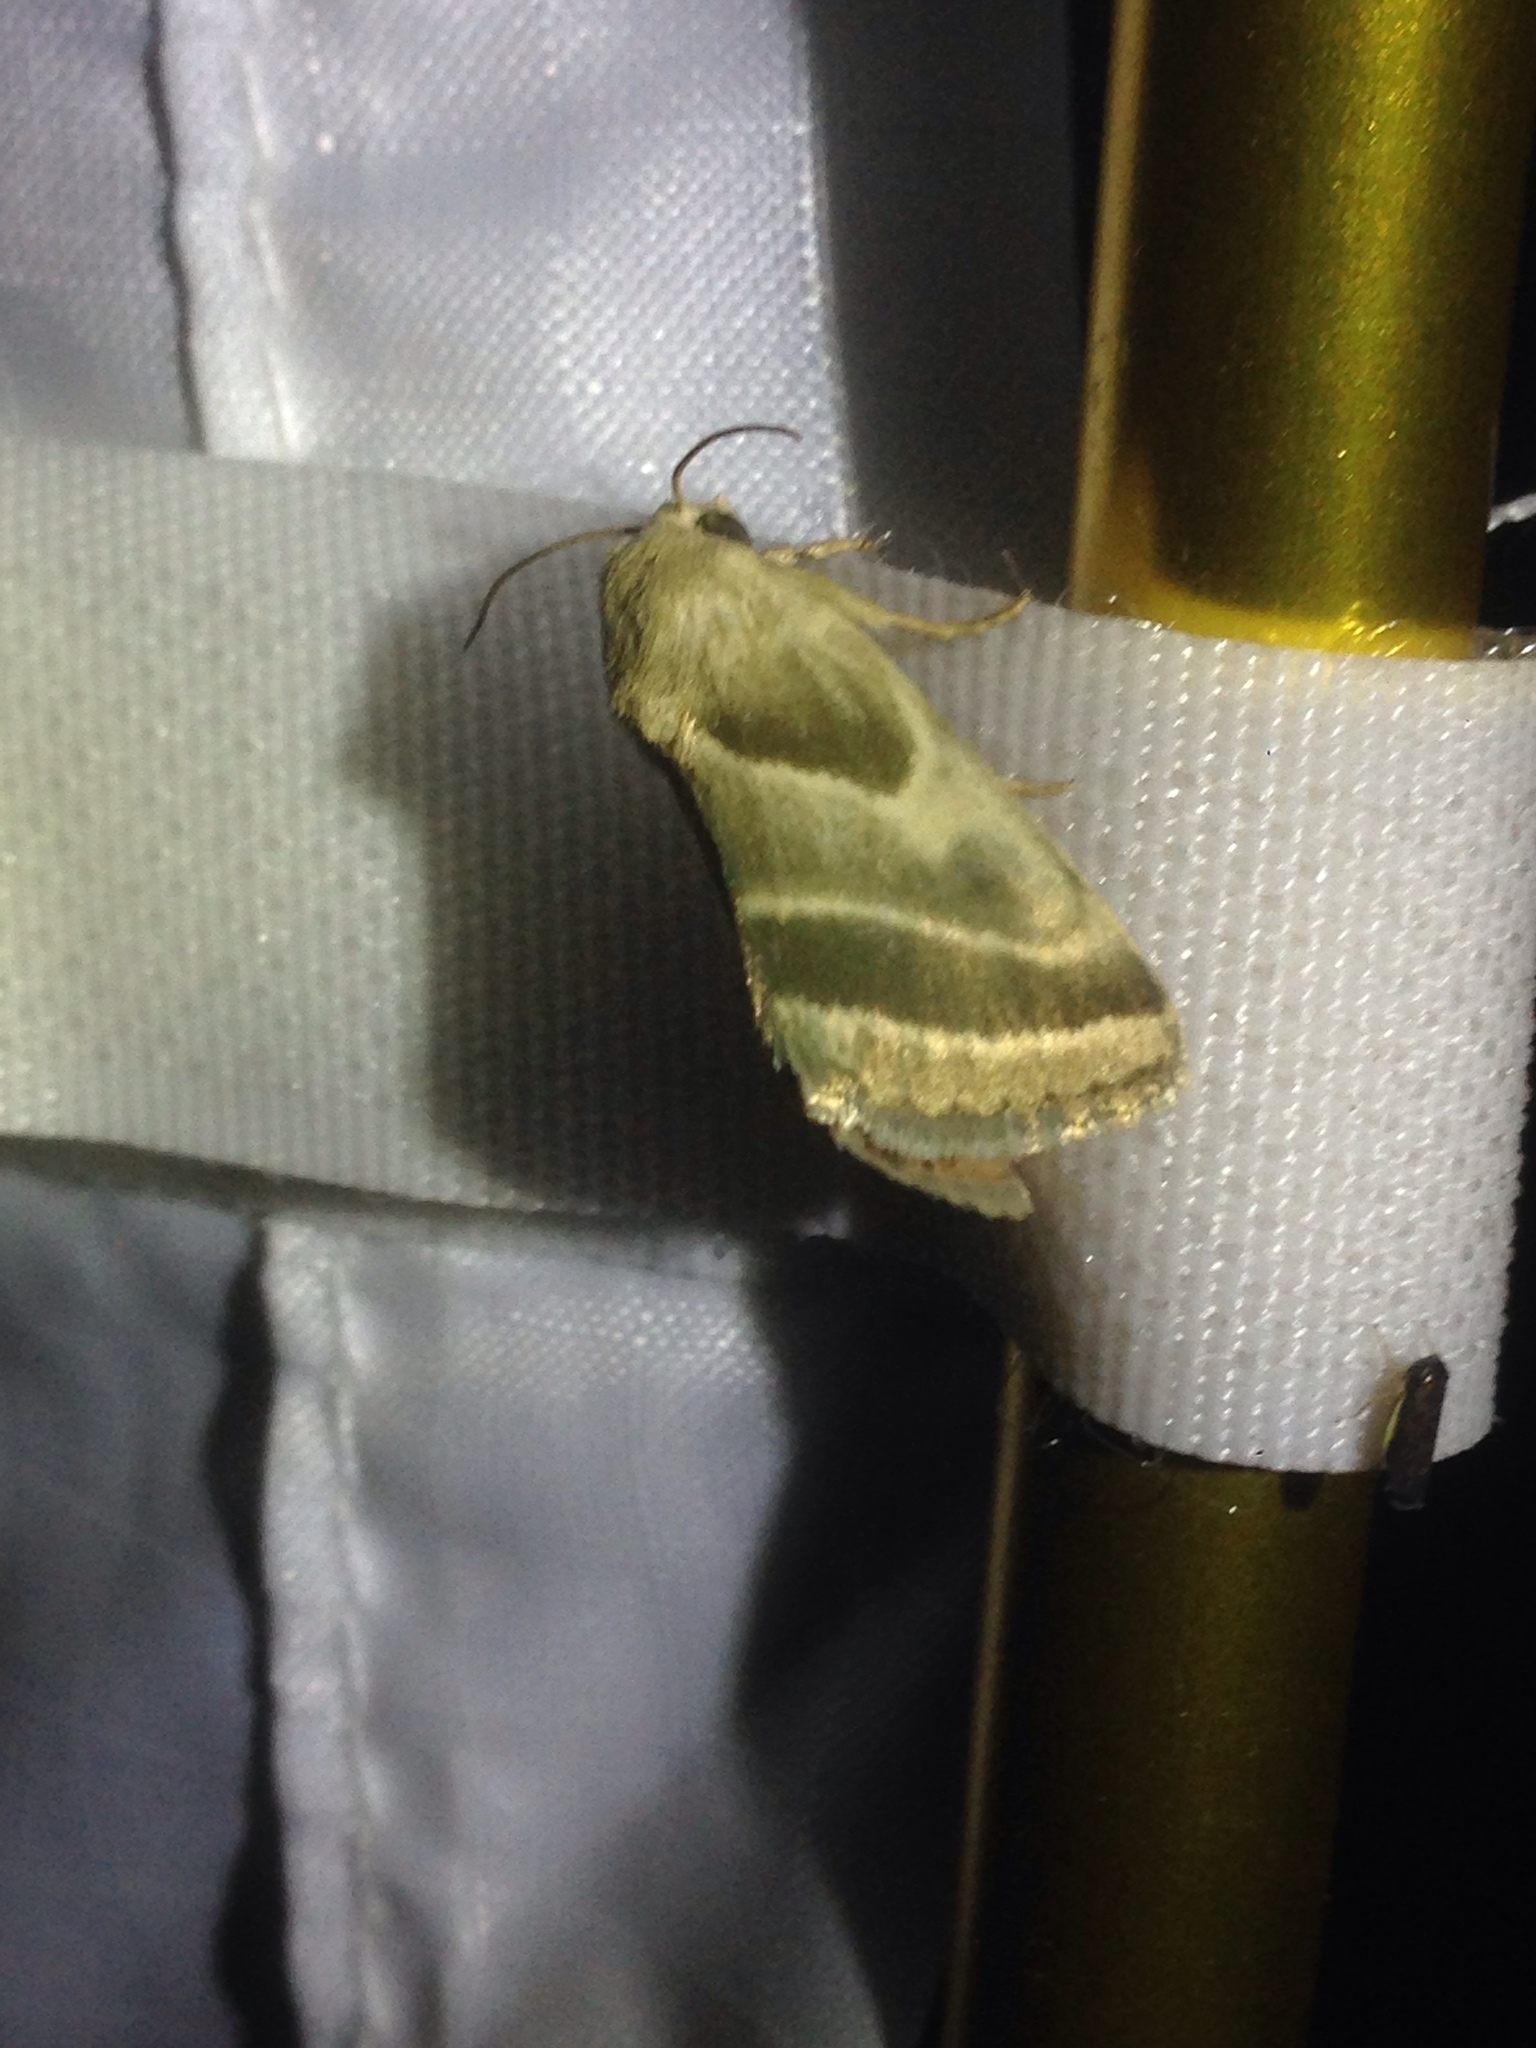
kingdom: Animalia
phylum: Arthropoda
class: Insecta
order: Lepidoptera
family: Noctuidae
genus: Schinia
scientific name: Schinia trifascia
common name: Three-lined flower moth
